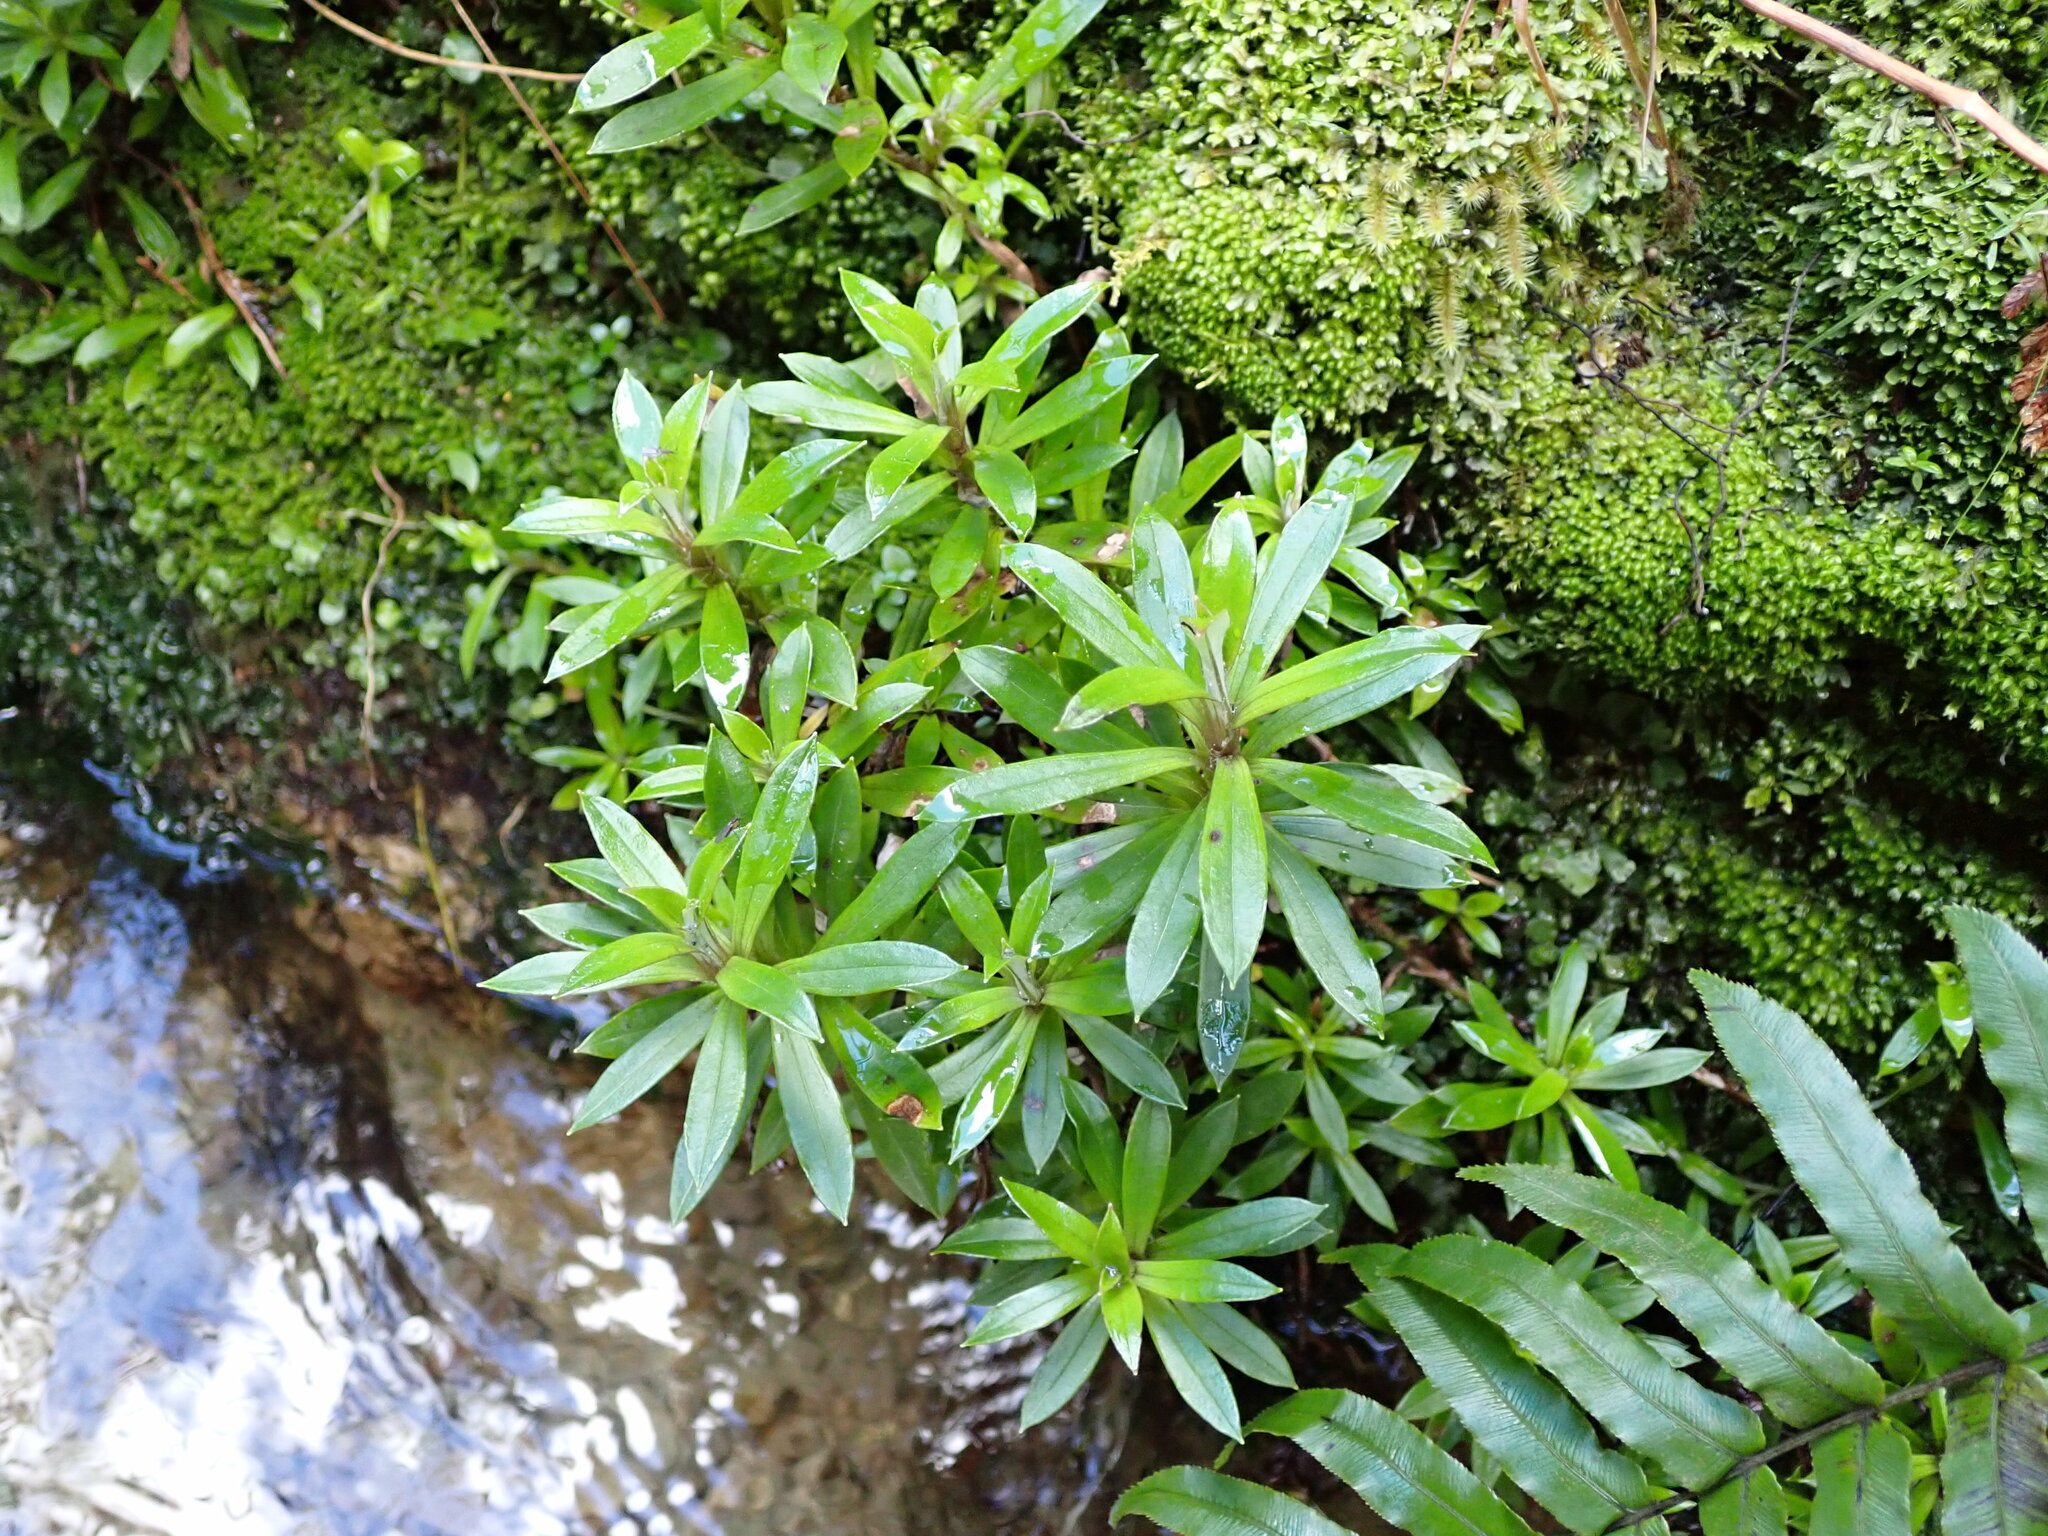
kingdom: Plantae
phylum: Tracheophyta
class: Magnoliopsida
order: Asterales
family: Asteraceae
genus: Anaphalioides
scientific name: Anaphalioides trinervis
